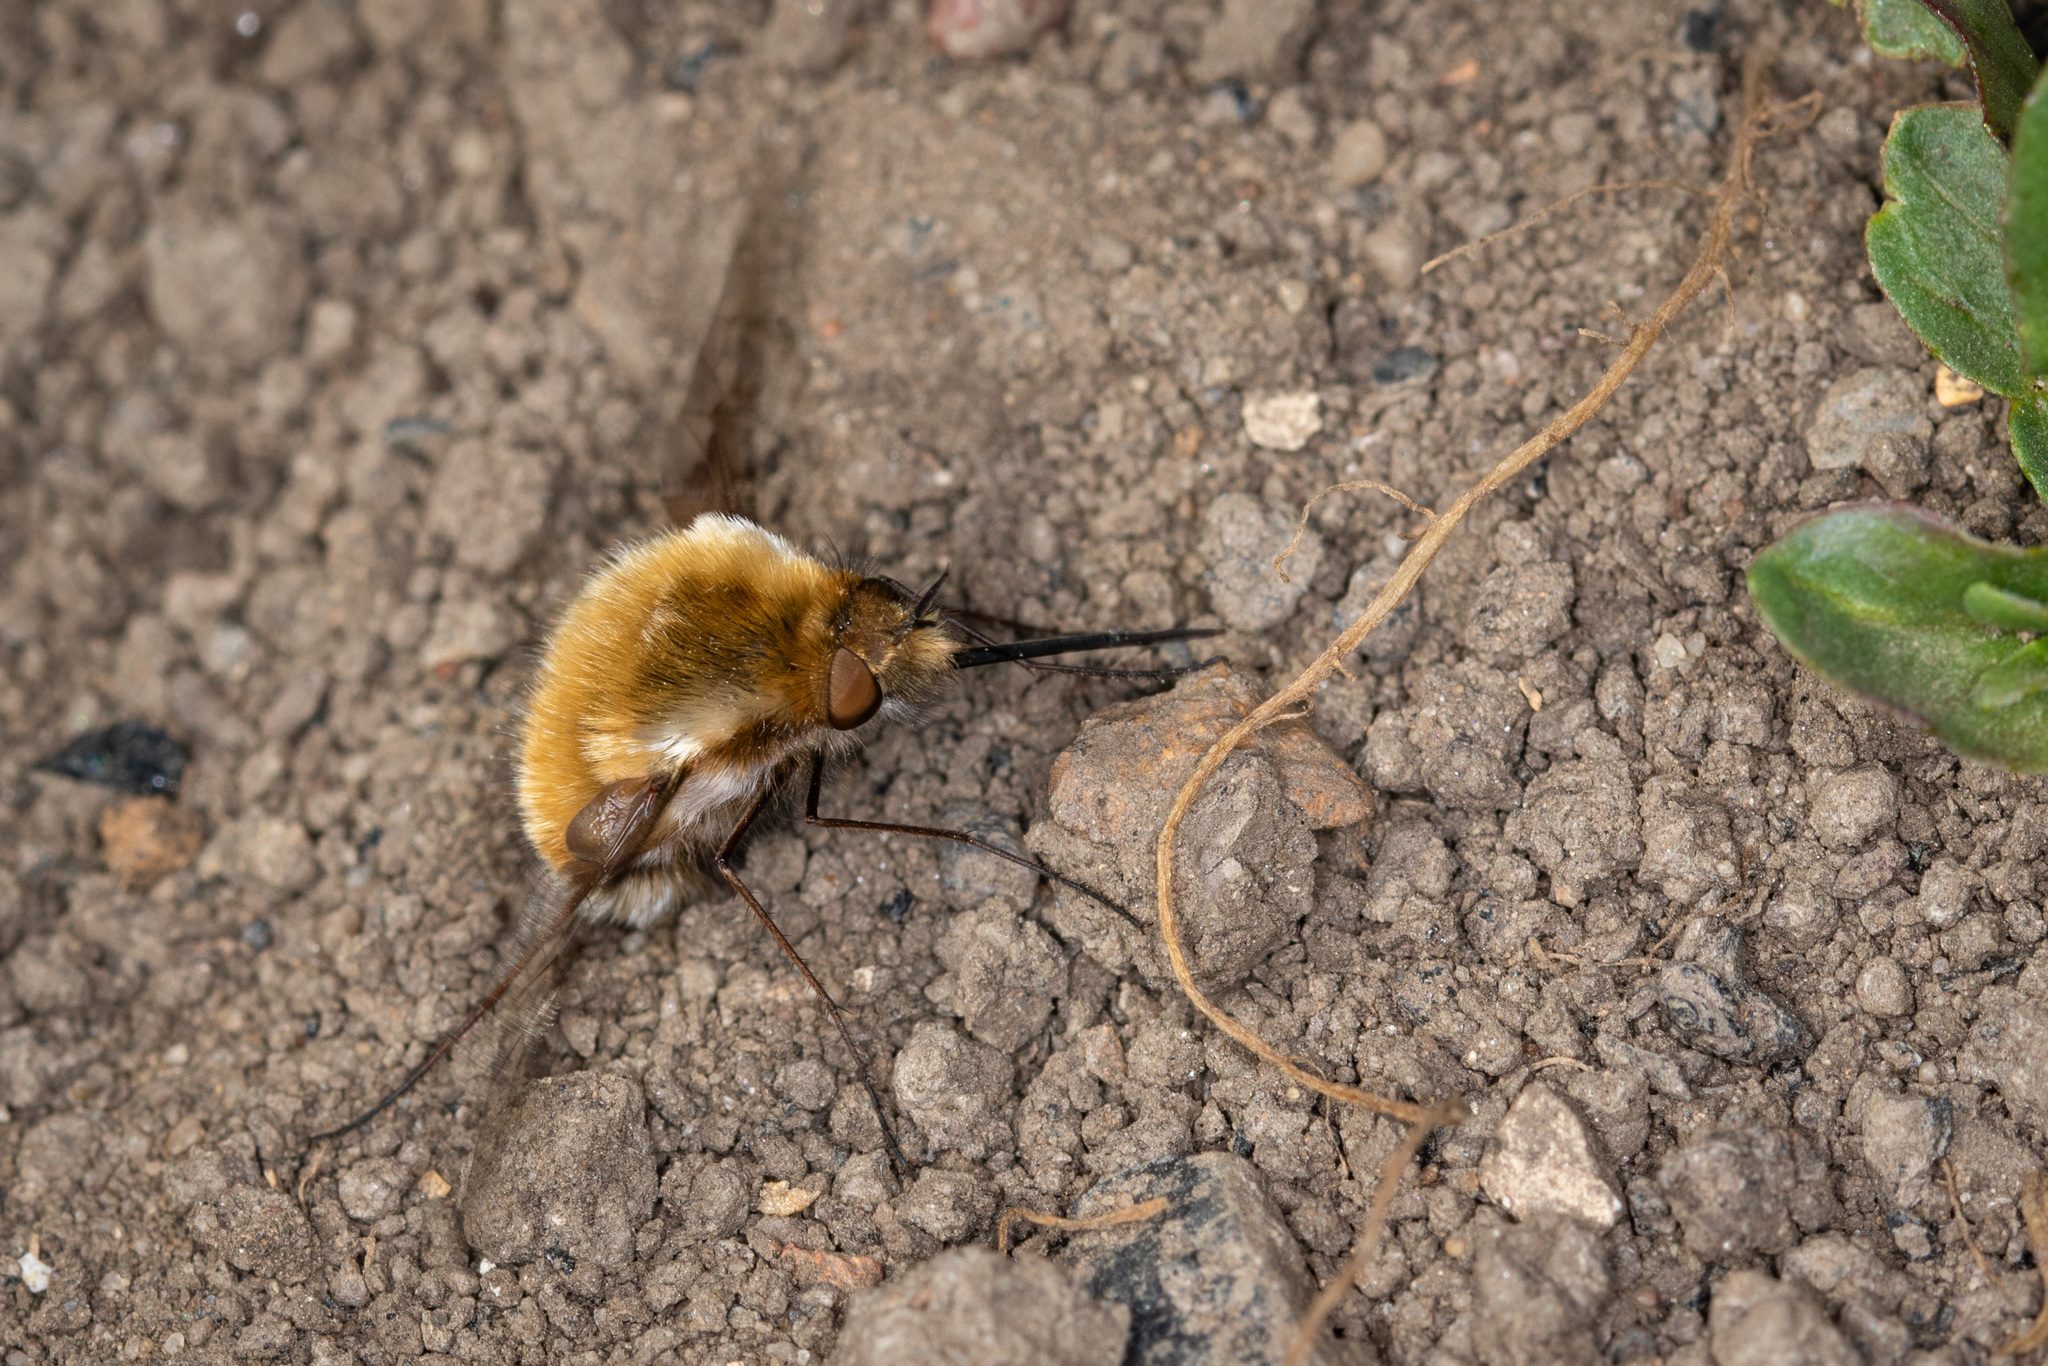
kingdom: Animalia
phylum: Arthropoda
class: Insecta
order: Diptera
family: Bombyliidae
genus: Bombylius
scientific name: Bombylius major
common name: Bee fly
